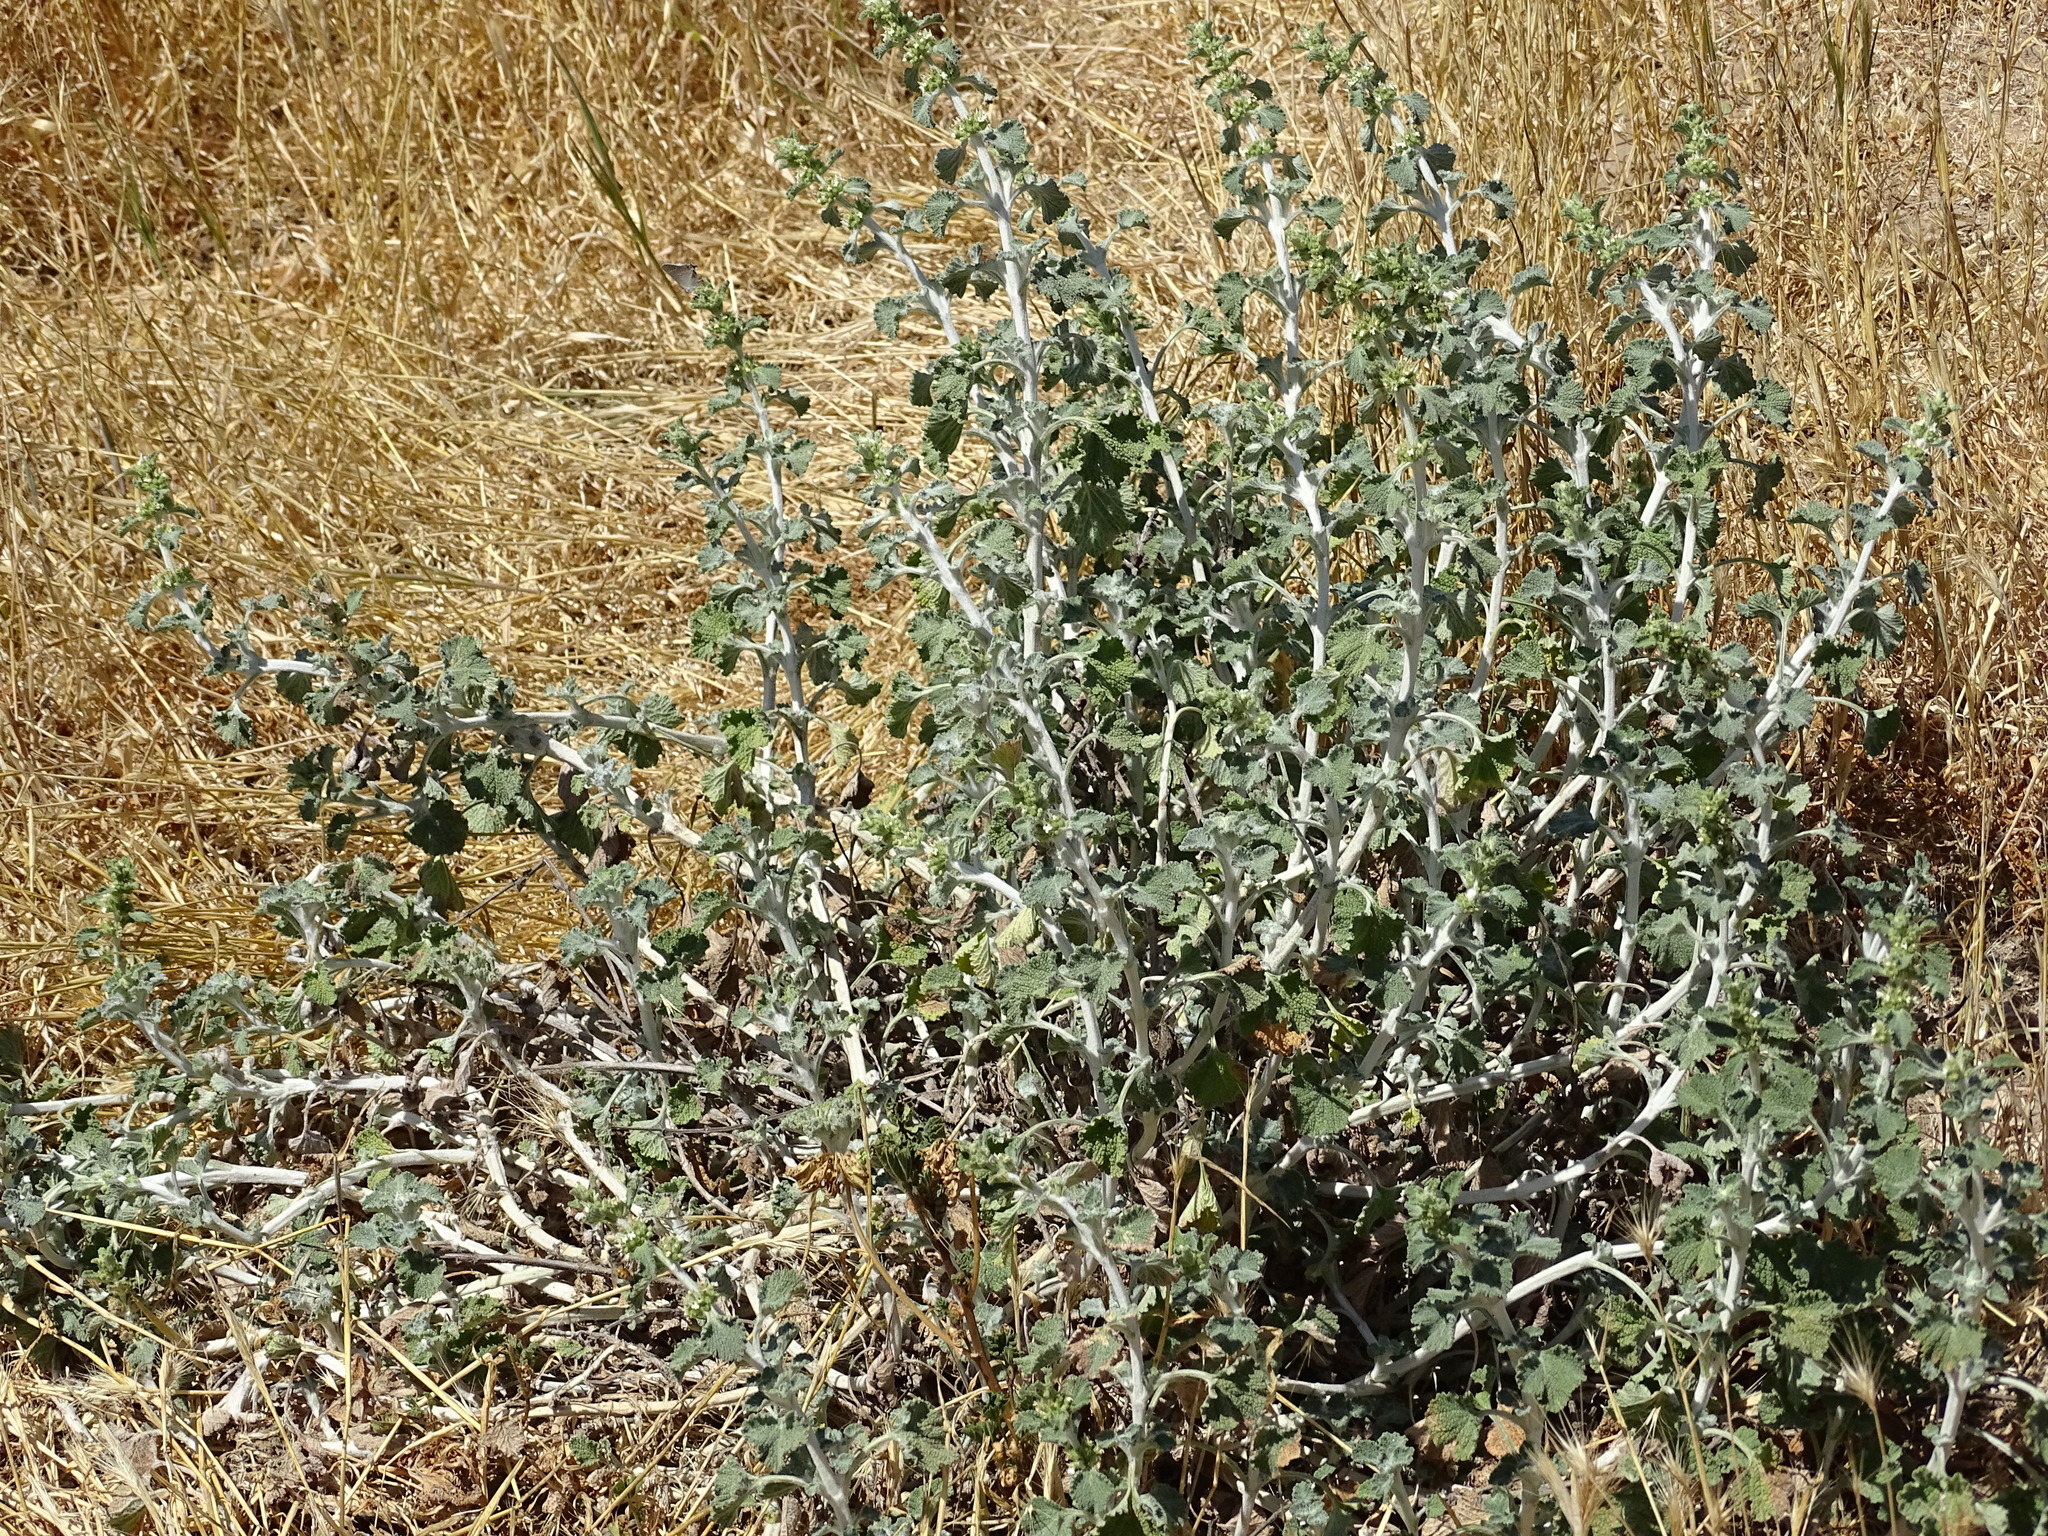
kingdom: Plantae
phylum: Tracheophyta
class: Magnoliopsida
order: Lamiales
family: Lamiaceae
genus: Marrubium
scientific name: Marrubium vulgare
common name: Horehound
